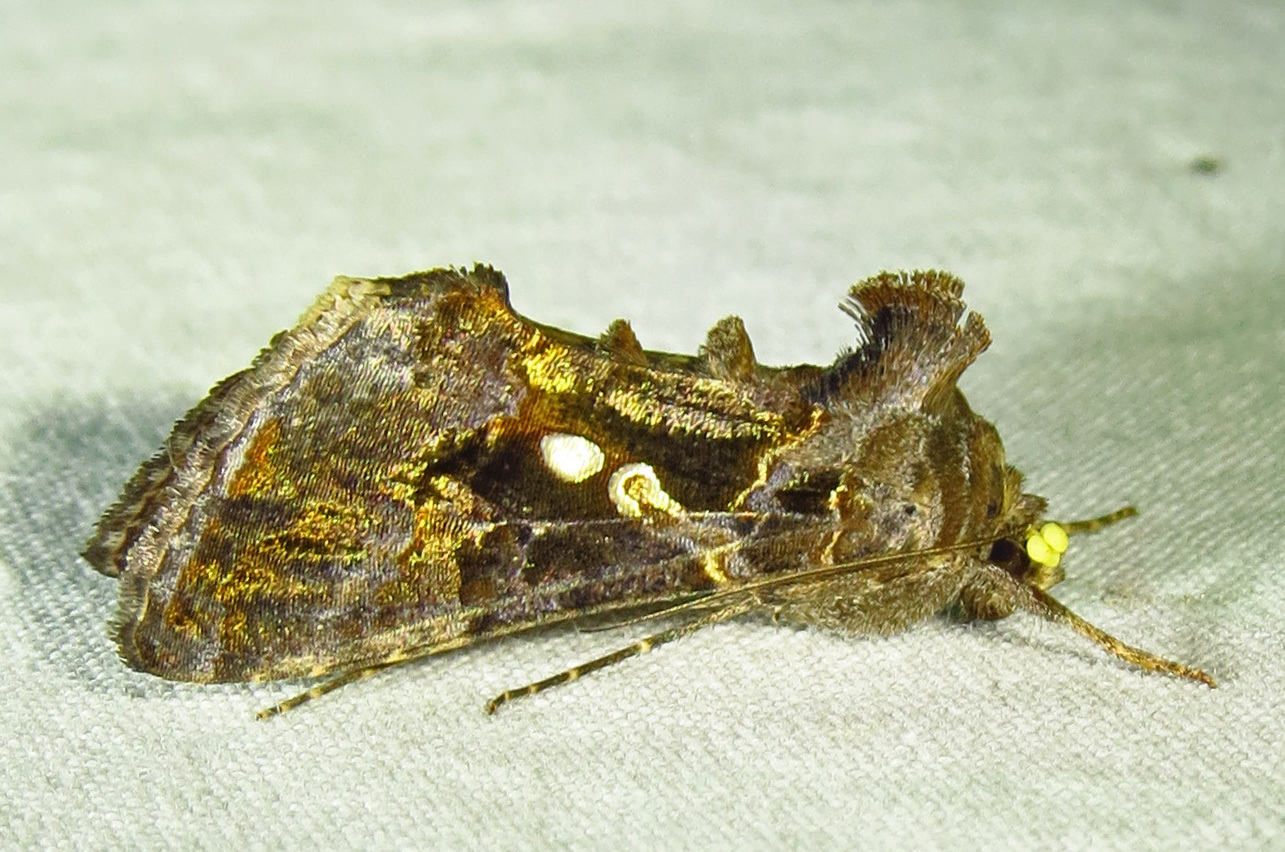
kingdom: Animalia
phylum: Arthropoda
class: Insecta
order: Lepidoptera
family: Noctuidae
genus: Chrysodeixis
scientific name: Chrysodeixis includens
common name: Cutworm moth
